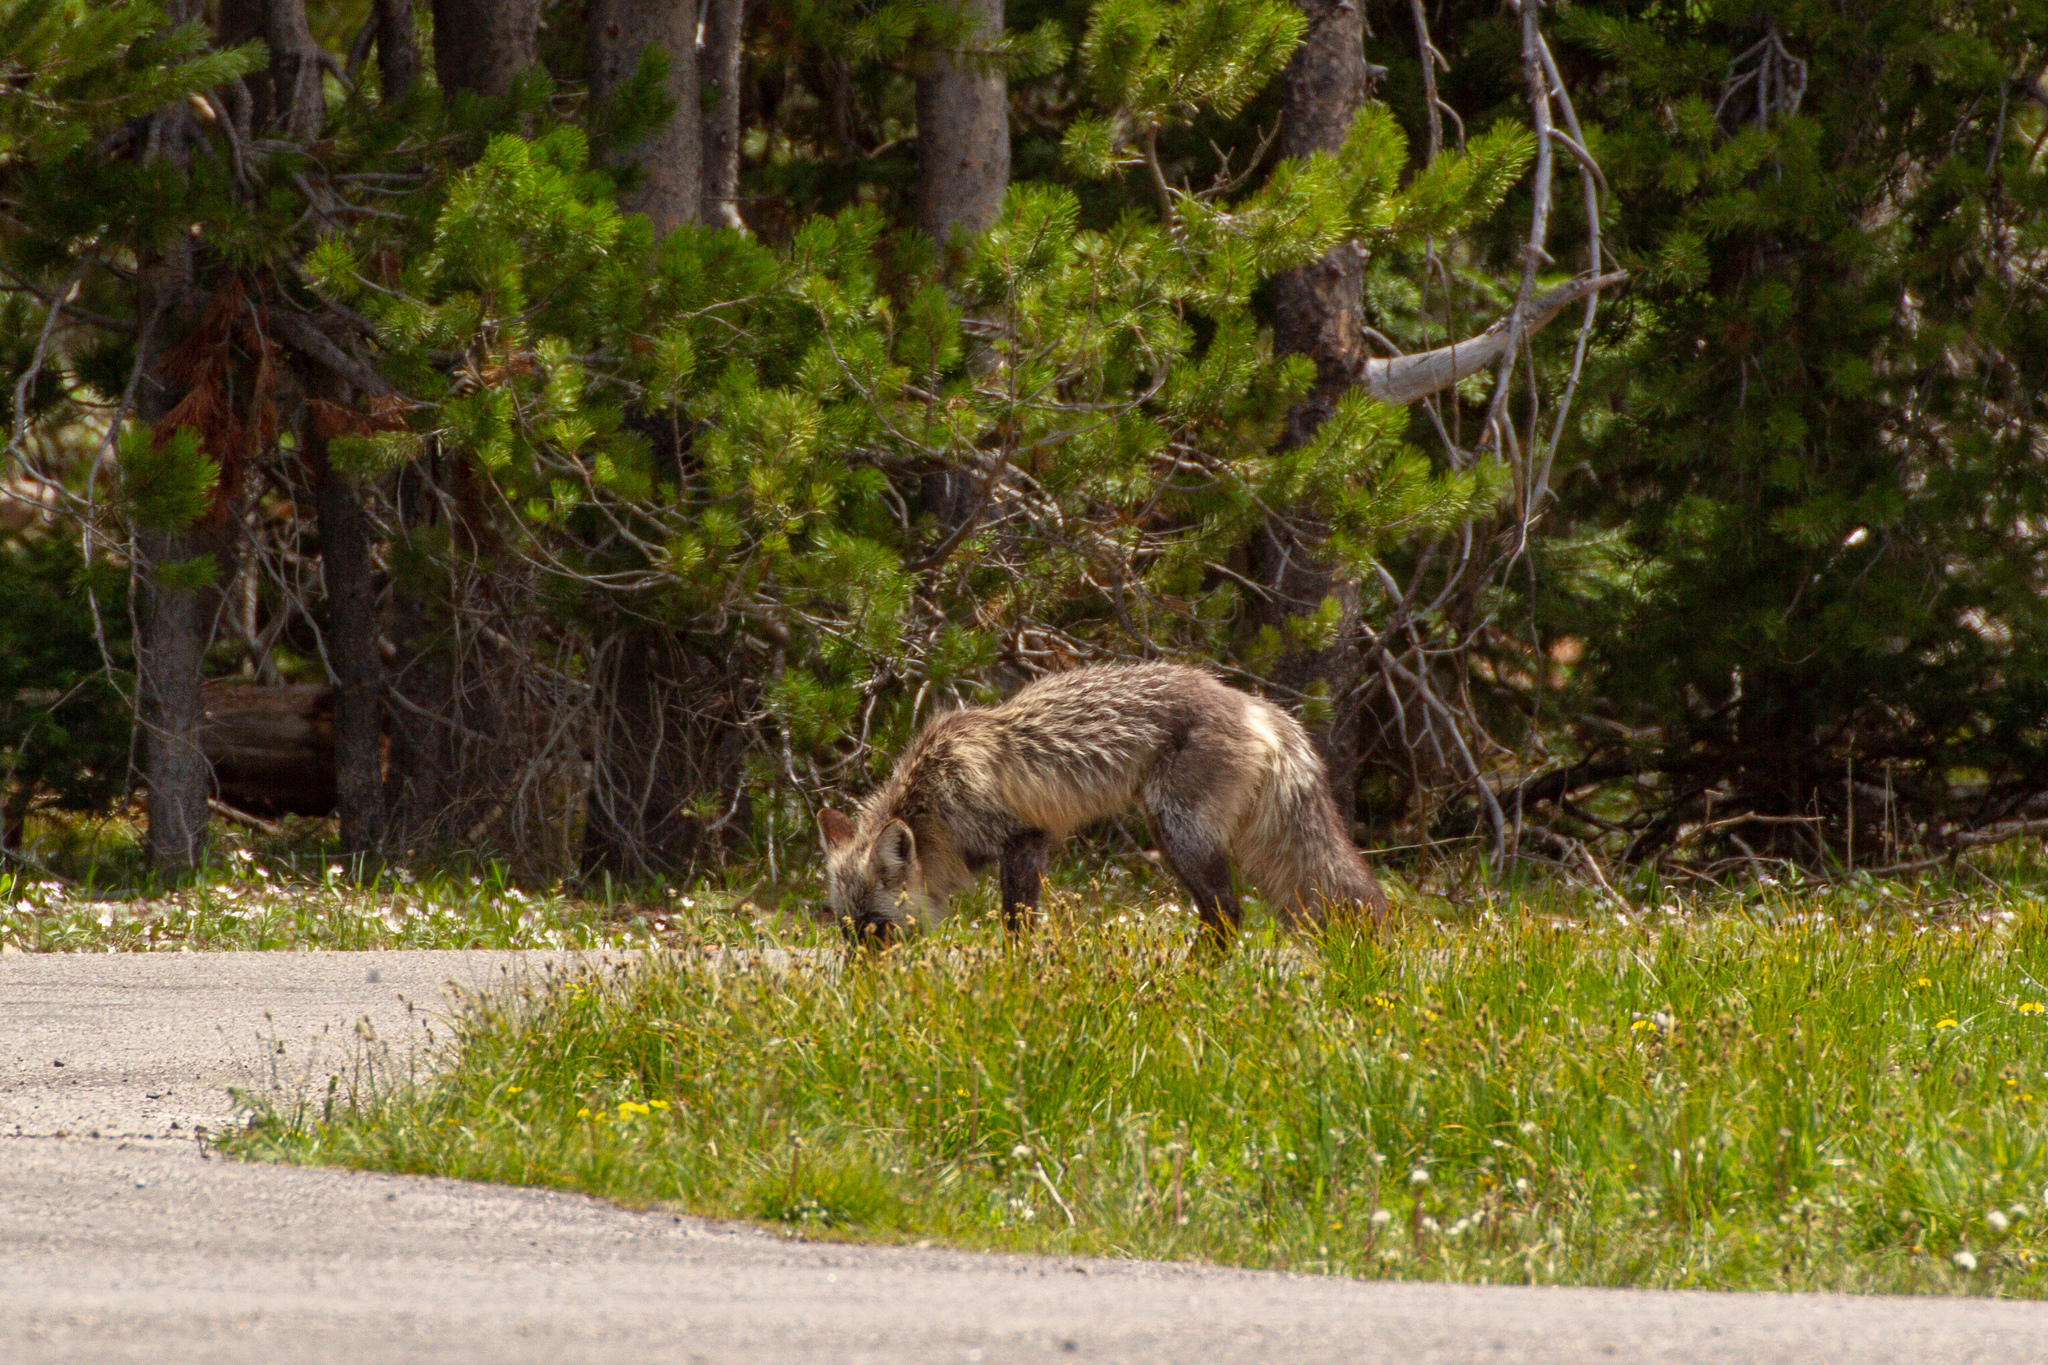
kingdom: Animalia
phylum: Chordata
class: Mammalia
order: Carnivora
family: Canidae
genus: Vulpes
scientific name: Vulpes vulpes
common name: Red fox
